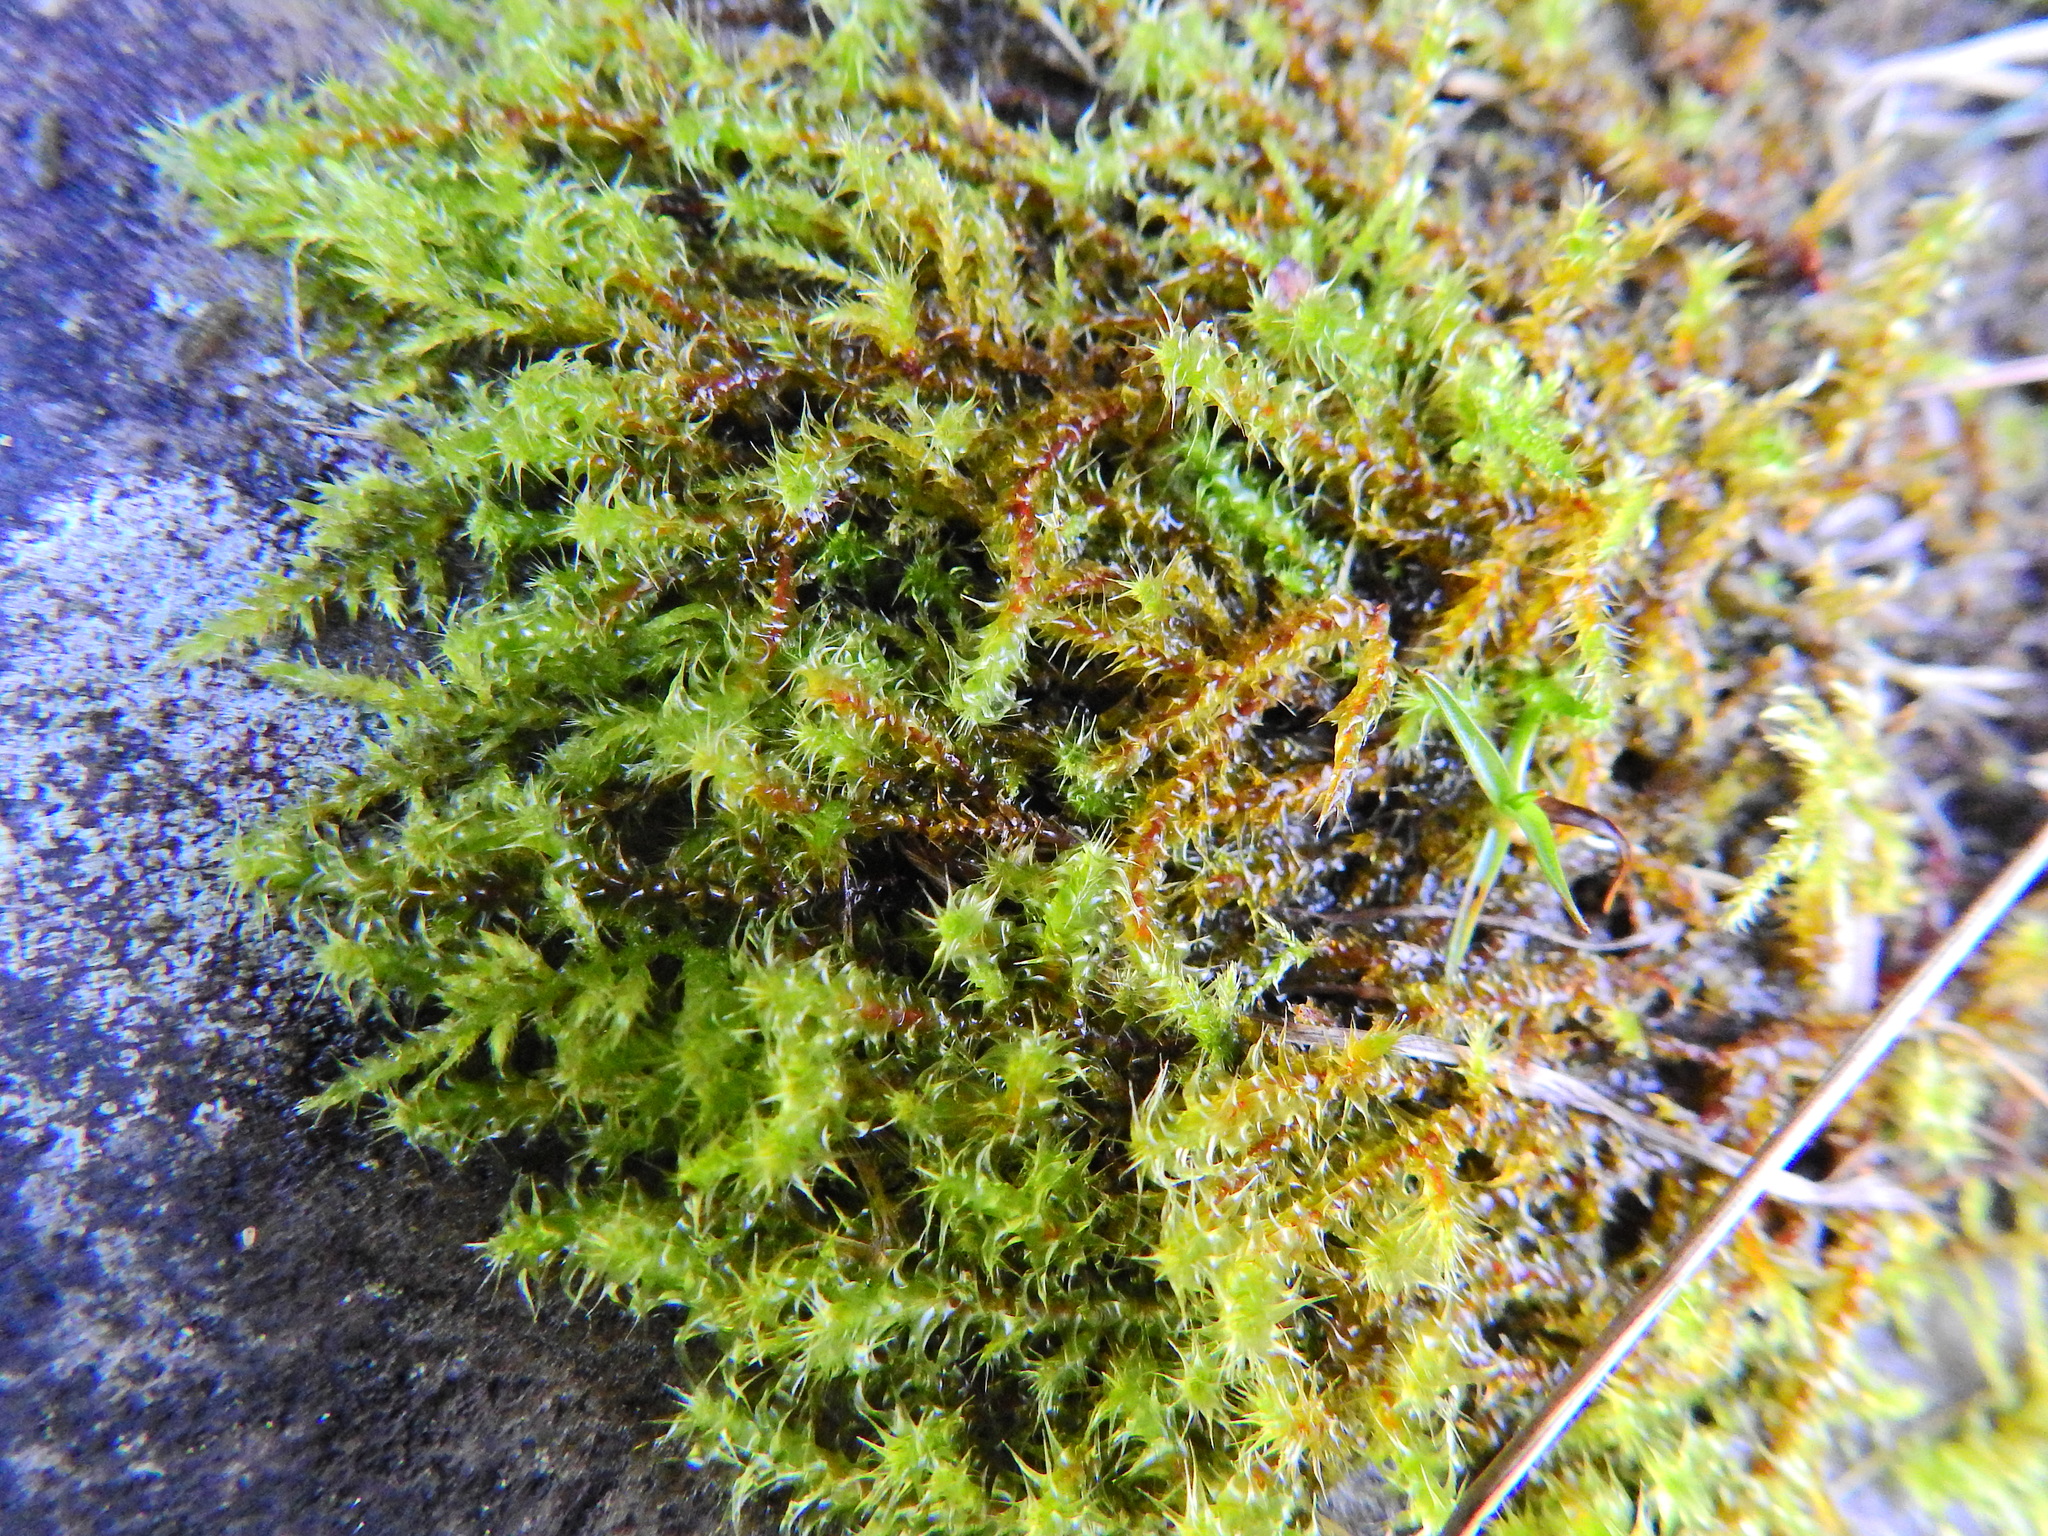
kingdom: Plantae
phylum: Bryophyta
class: Bryopsida
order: Hypnales
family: Hylocomiaceae
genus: Rhytidiadelphus
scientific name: Rhytidiadelphus squarrosus
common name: Springy turf-moss
